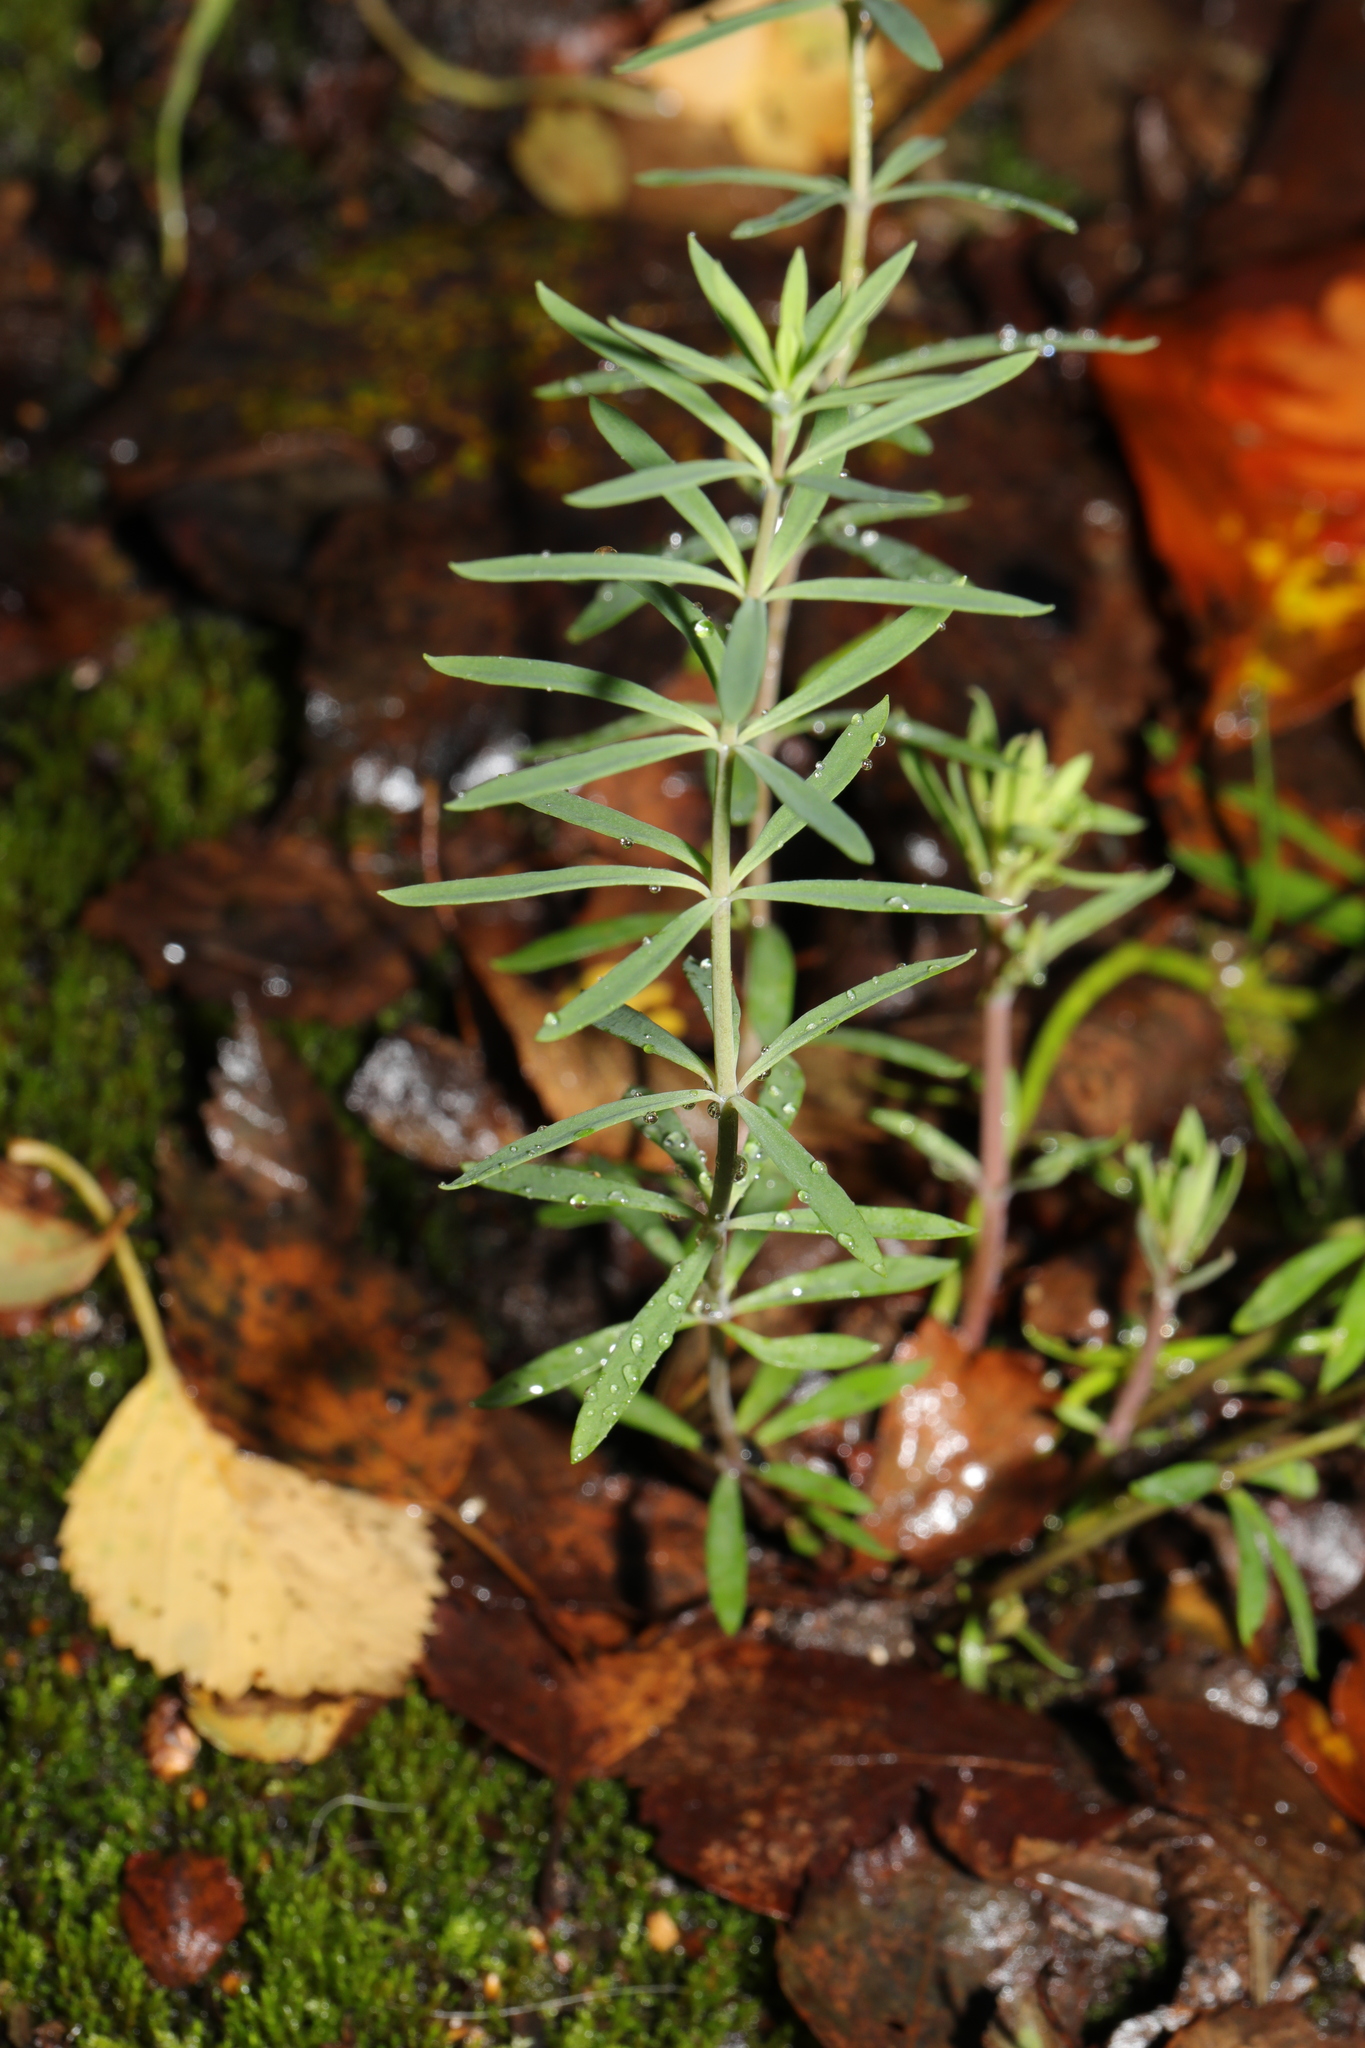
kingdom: Plantae
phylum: Tracheophyta
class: Magnoliopsida
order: Lamiales
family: Plantaginaceae
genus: Linaria
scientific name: Linaria purpurea
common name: Purple toadflax
